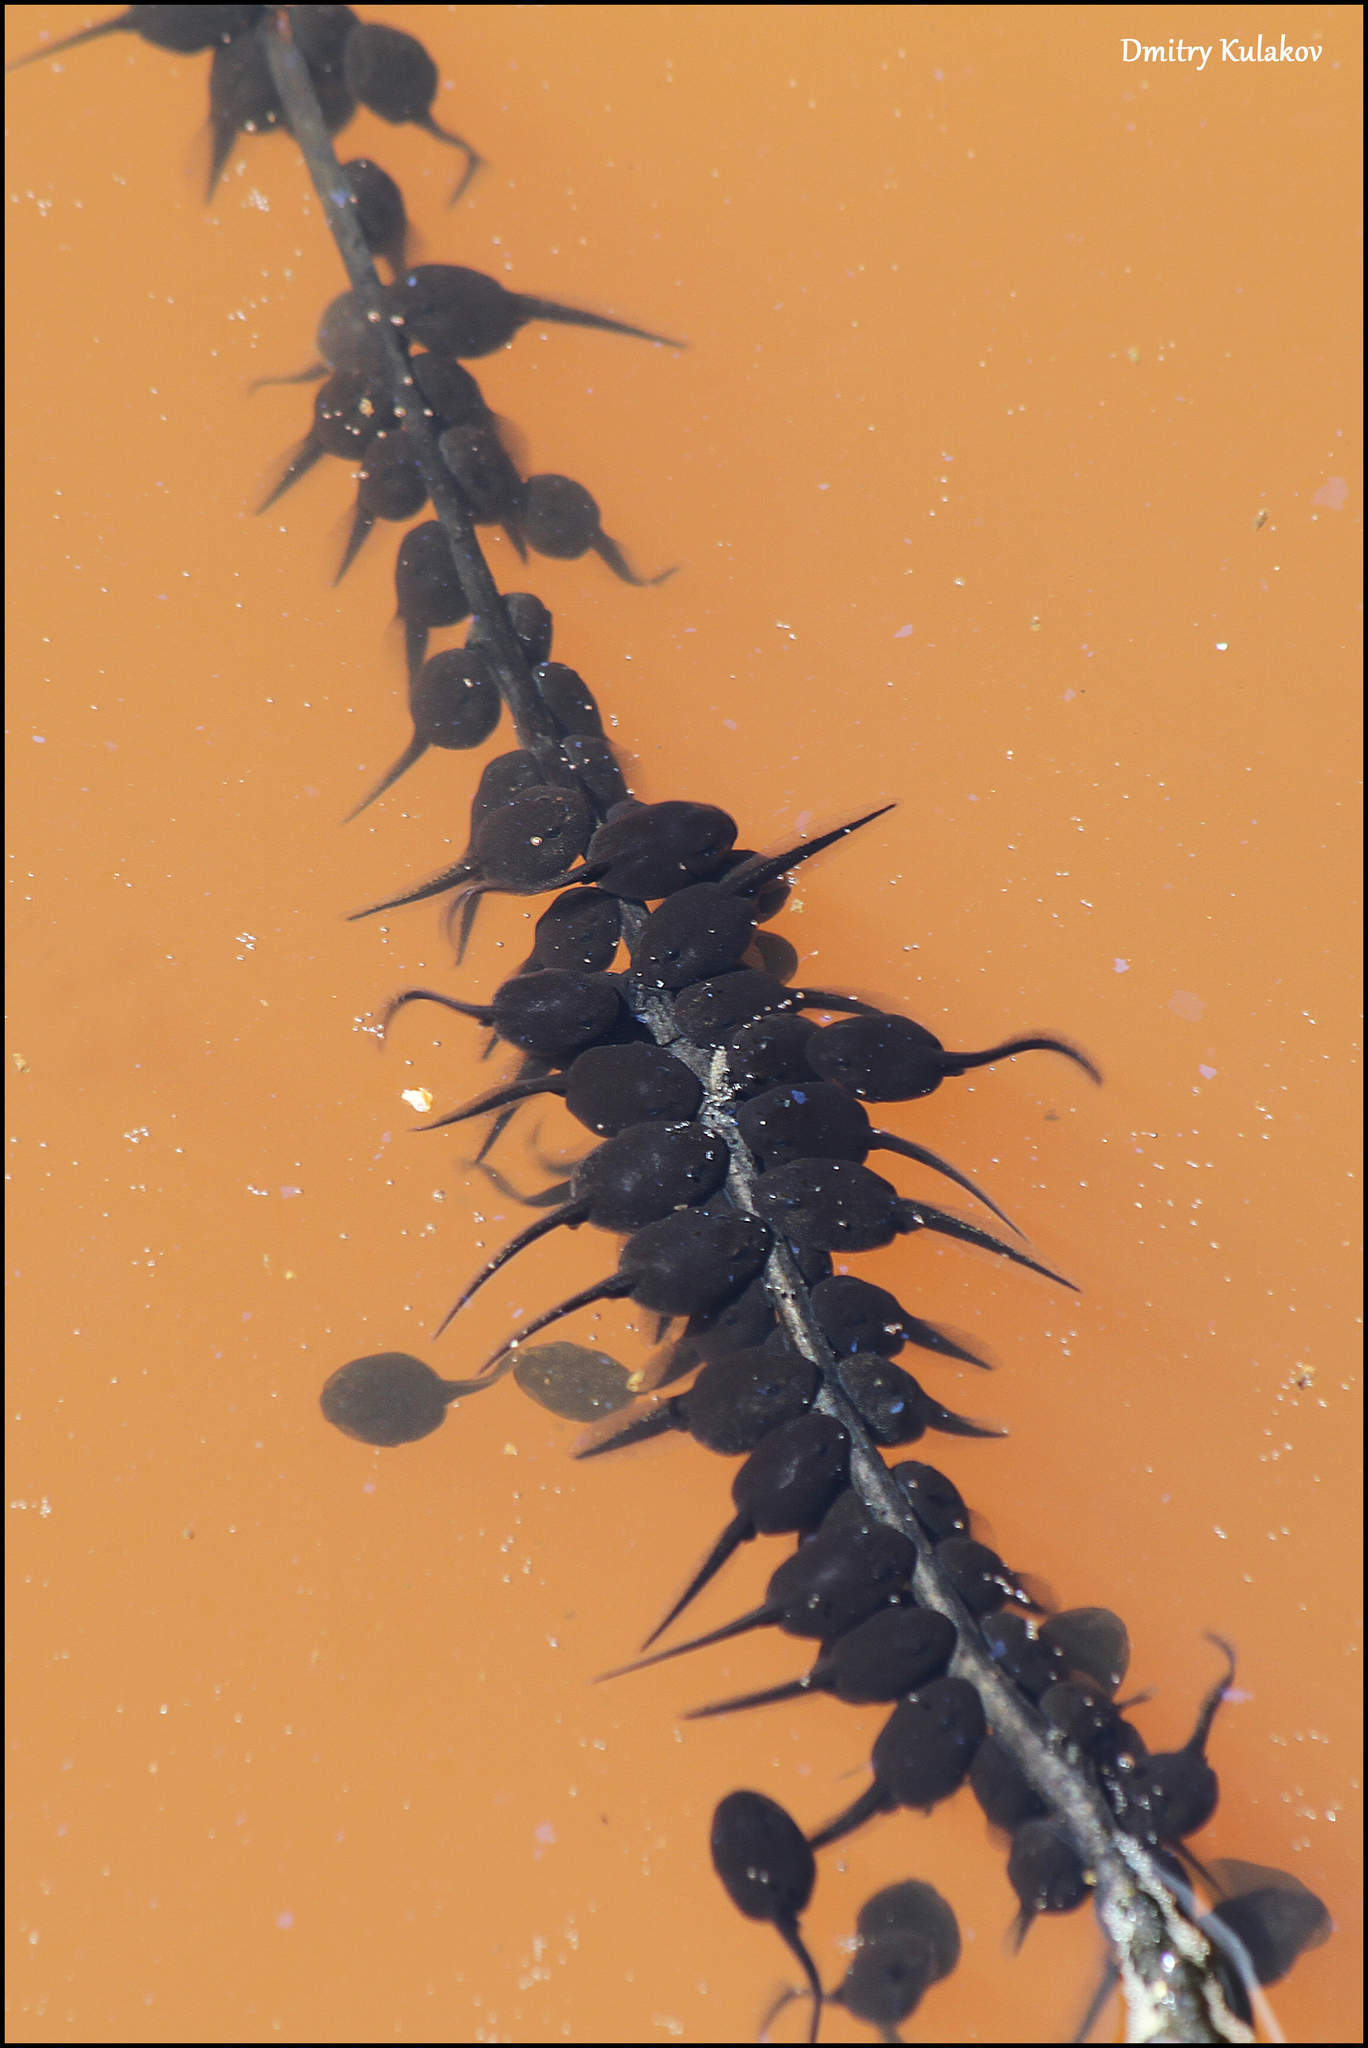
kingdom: Animalia
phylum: Chordata
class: Amphibia
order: Anura
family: Bufonidae
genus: Bufo
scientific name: Bufo bufo
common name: Common toad
